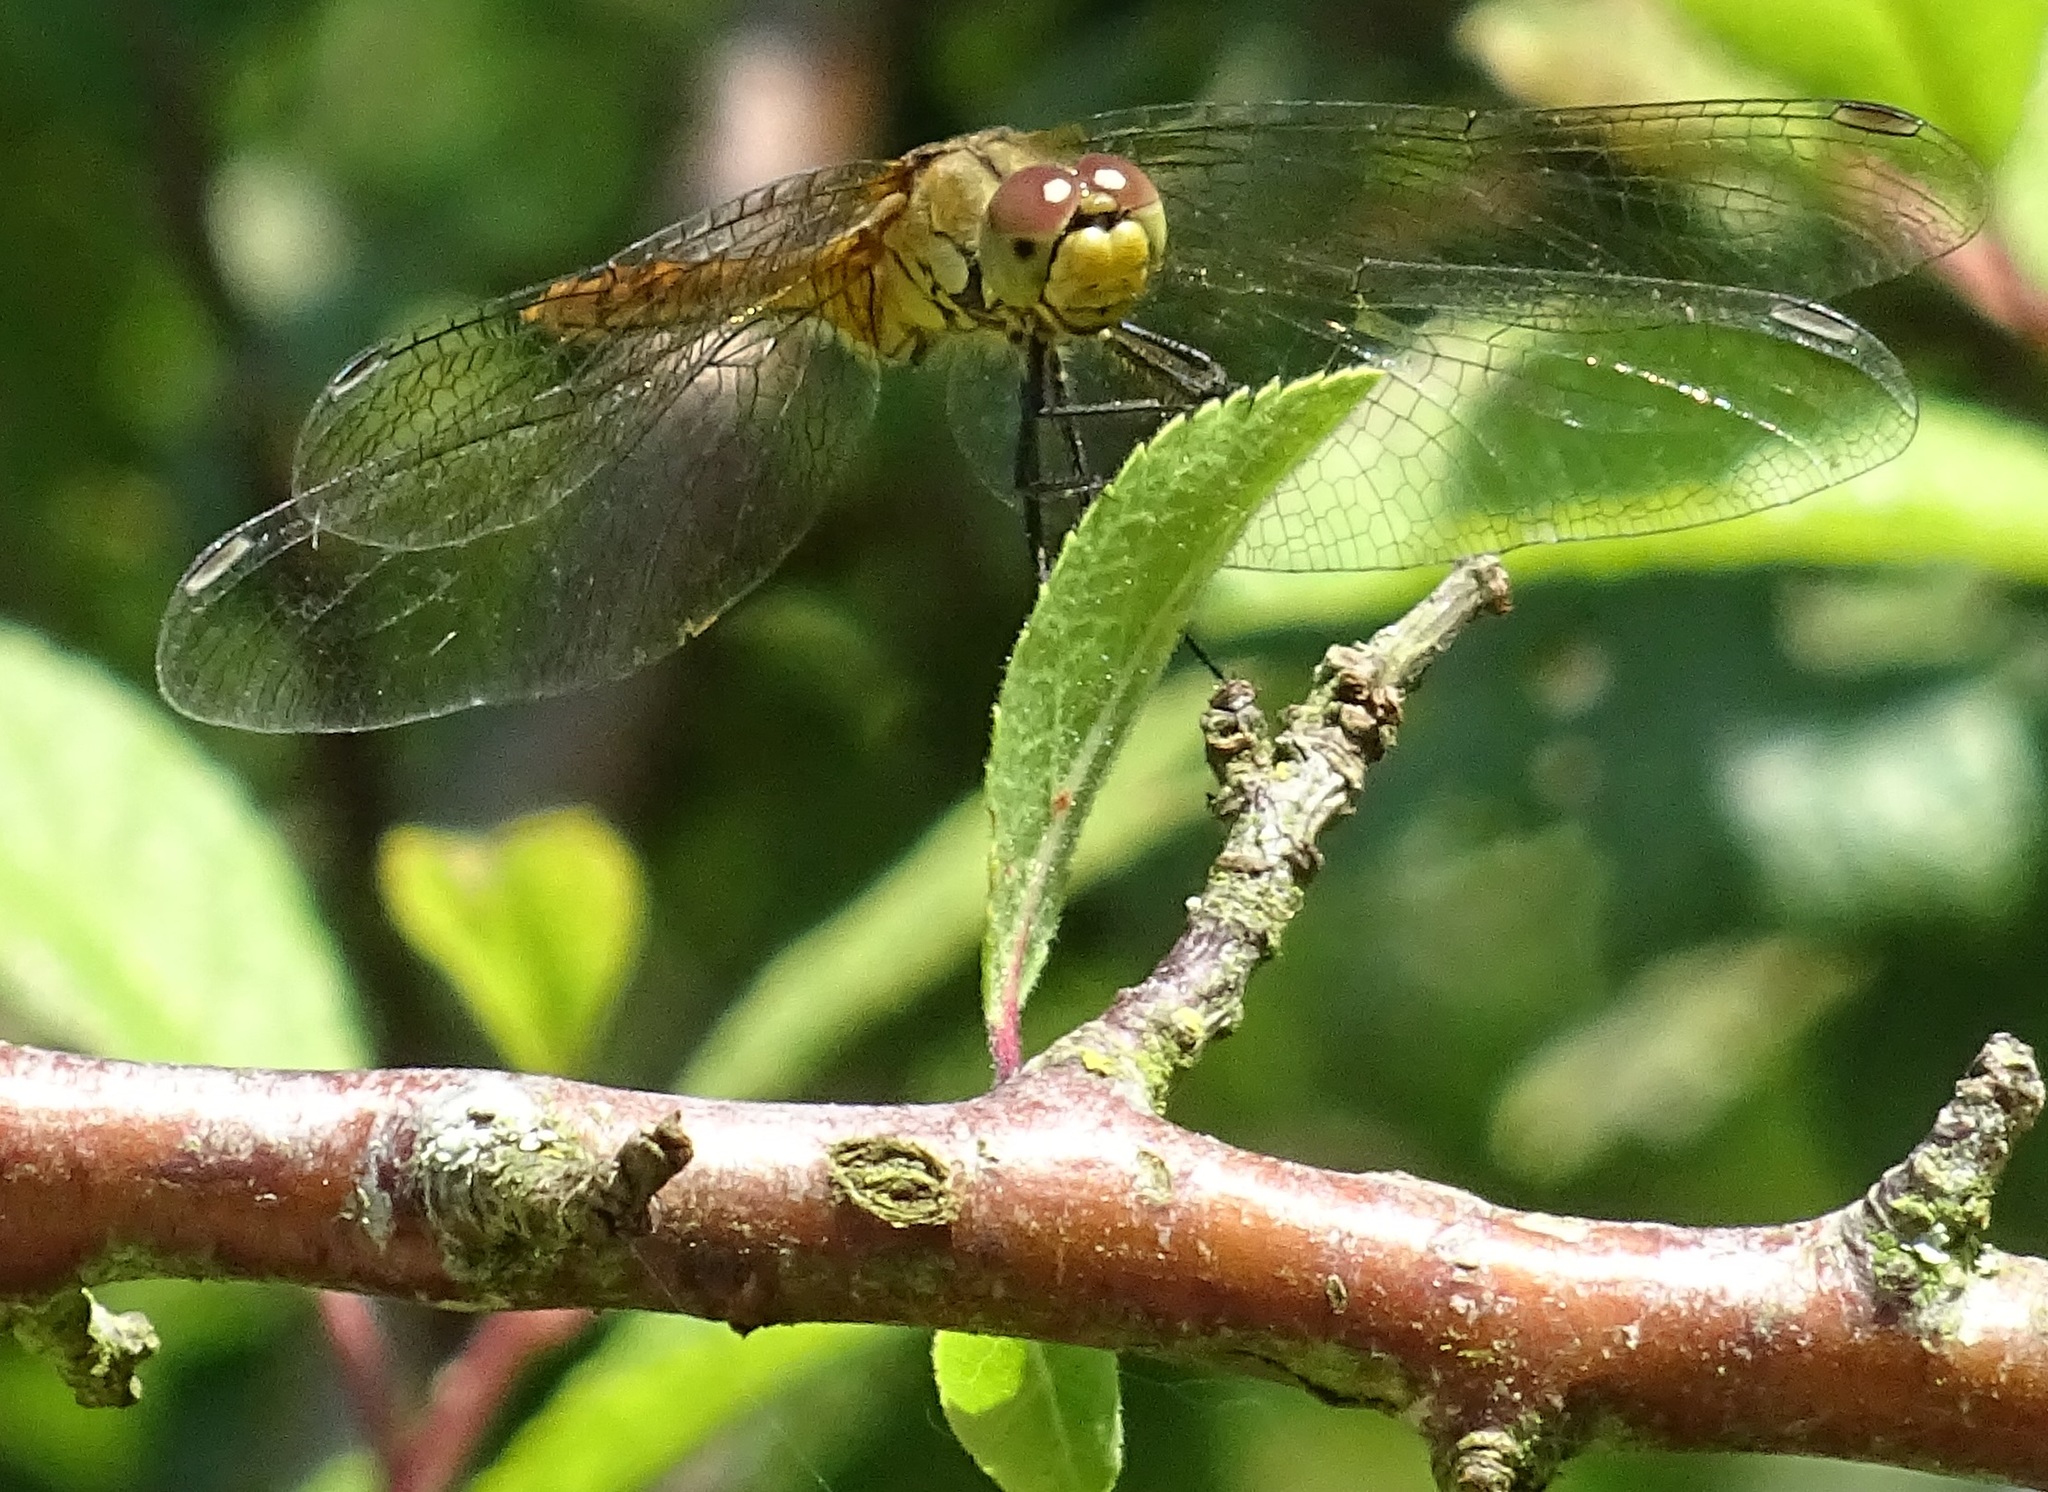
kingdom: Animalia
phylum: Arthropoda
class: Insecta
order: Odonata
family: Libellulidae
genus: Sympetrum
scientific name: Sympetrum sanguineum
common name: Ruddy darter
